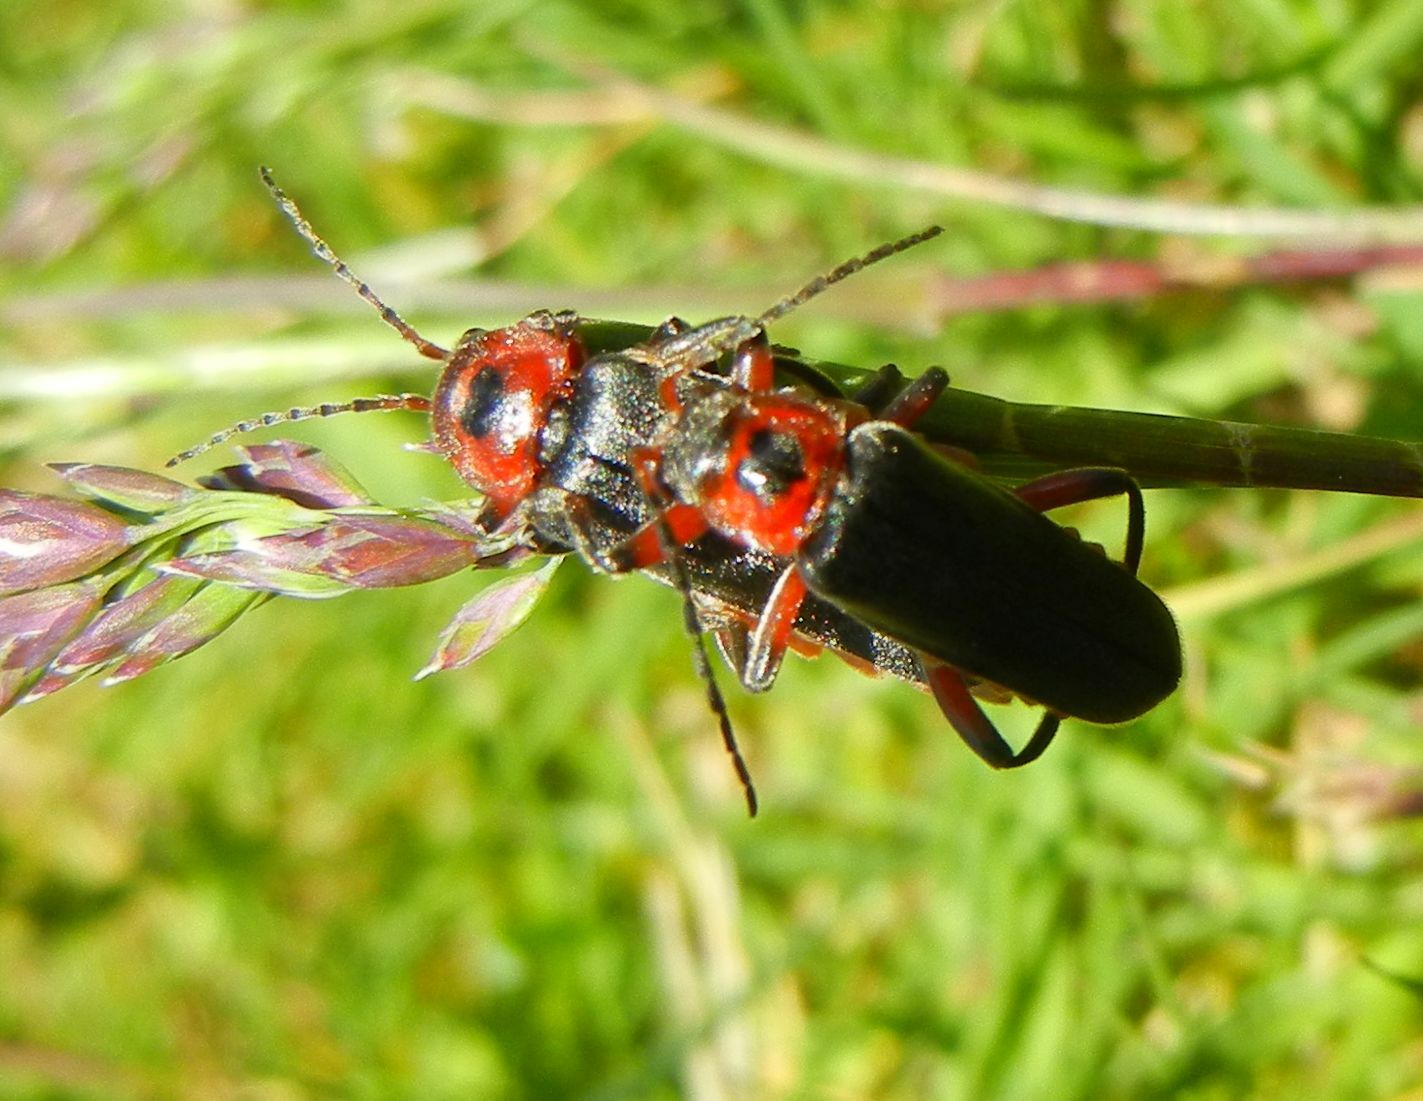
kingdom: Animalia
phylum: Arthropoda
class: Insecta
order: Coleoptera
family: Cantharidae
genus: Cantharis
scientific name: Cantharis rustica
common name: Soldier beetle
